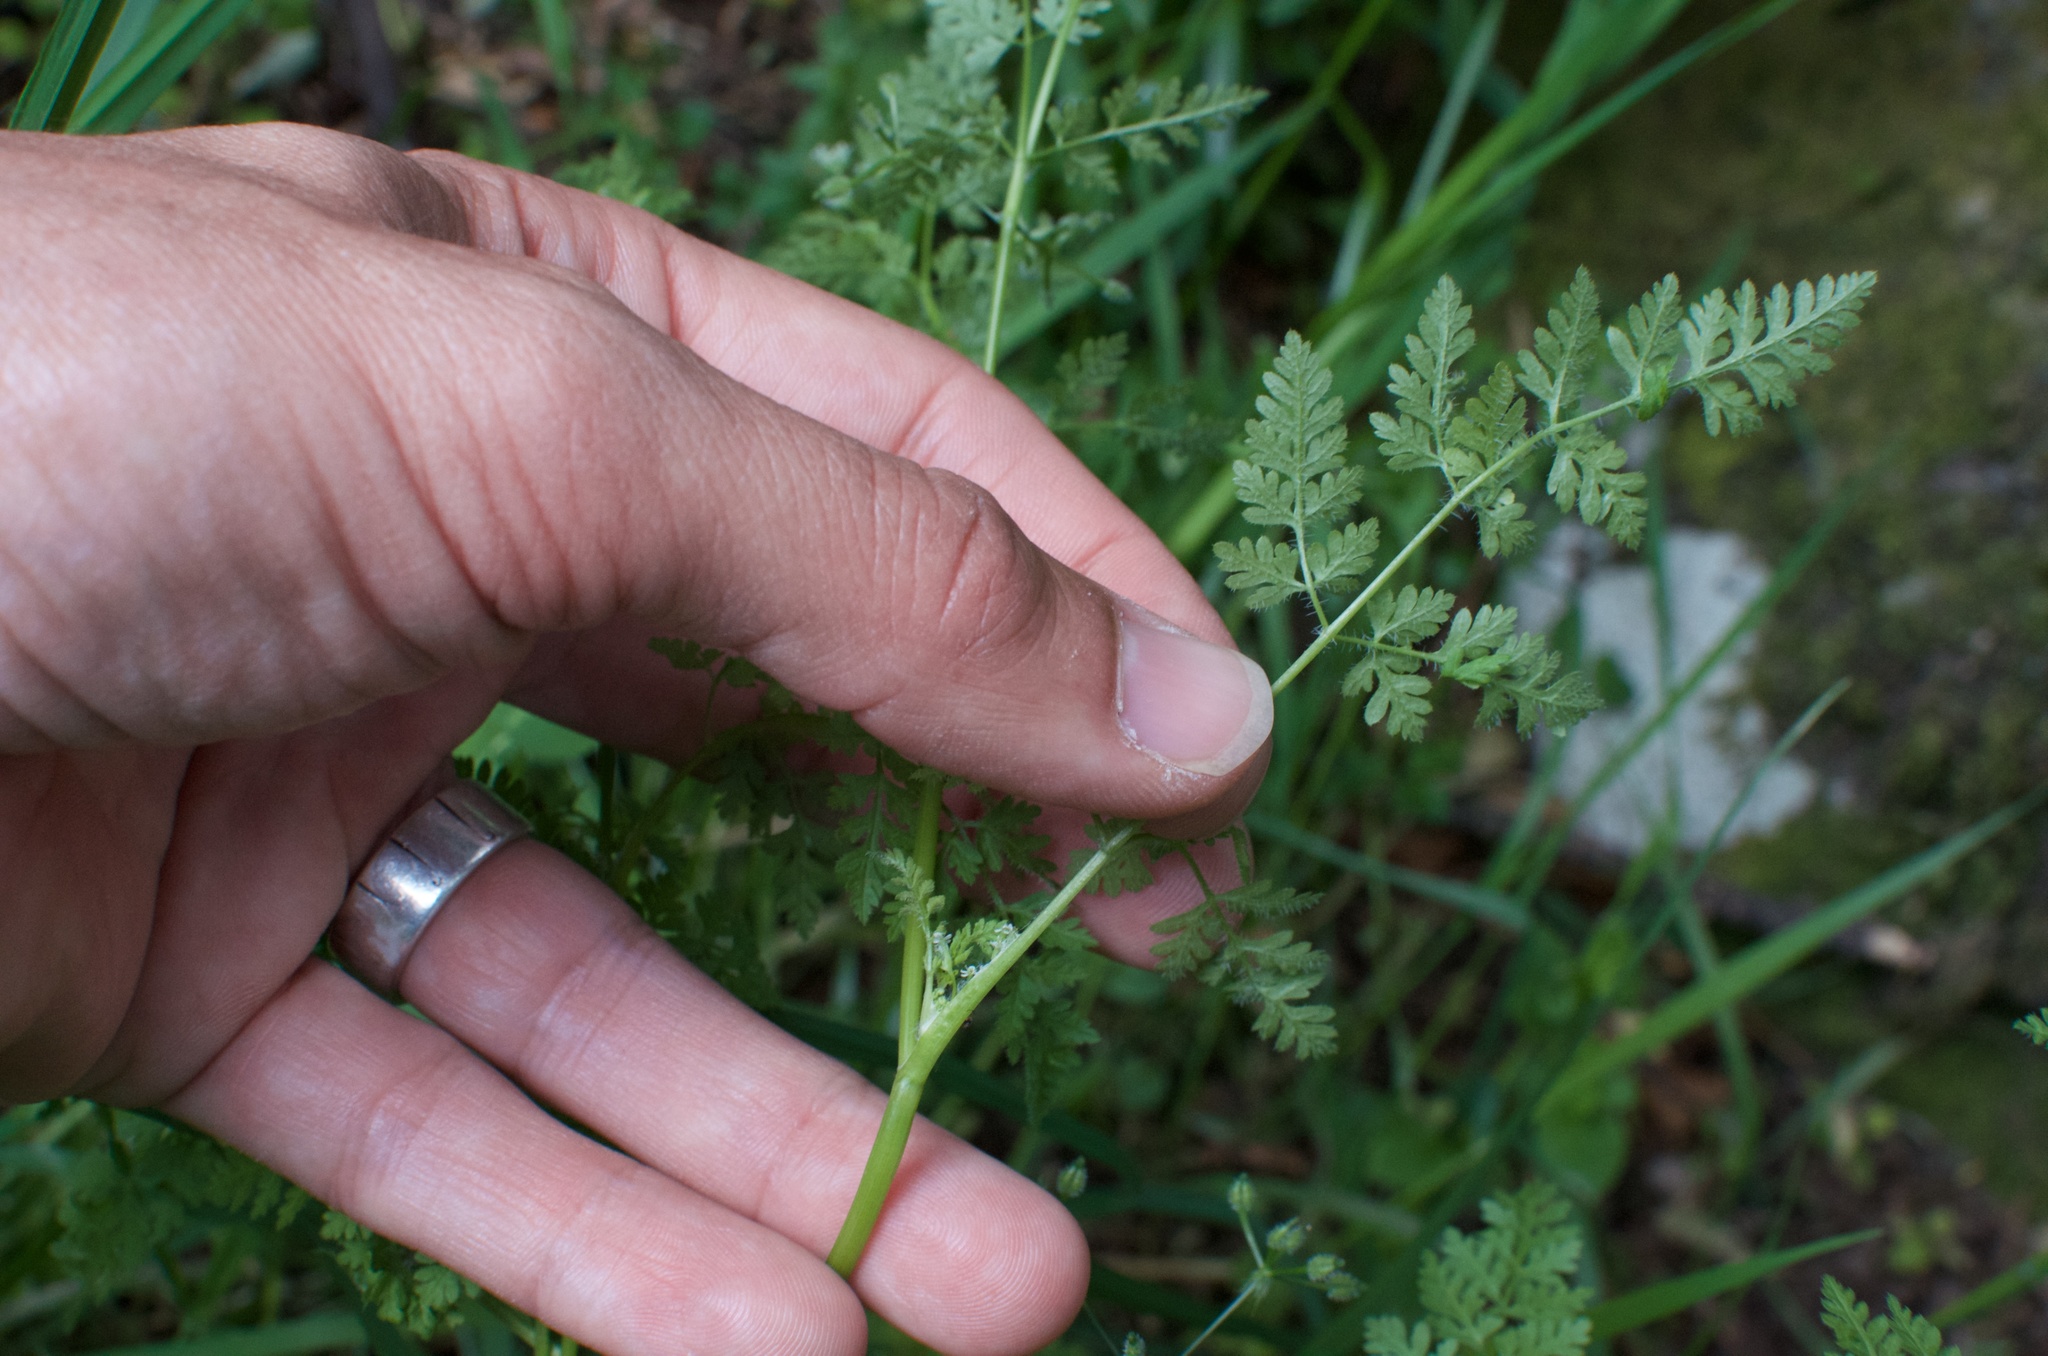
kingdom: Plantae
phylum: Tracheophyta
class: Magnoliopsida
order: Apiales
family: Apiaceae
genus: Anthriscus
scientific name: Anthriscus caucalis
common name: Bur chervil
